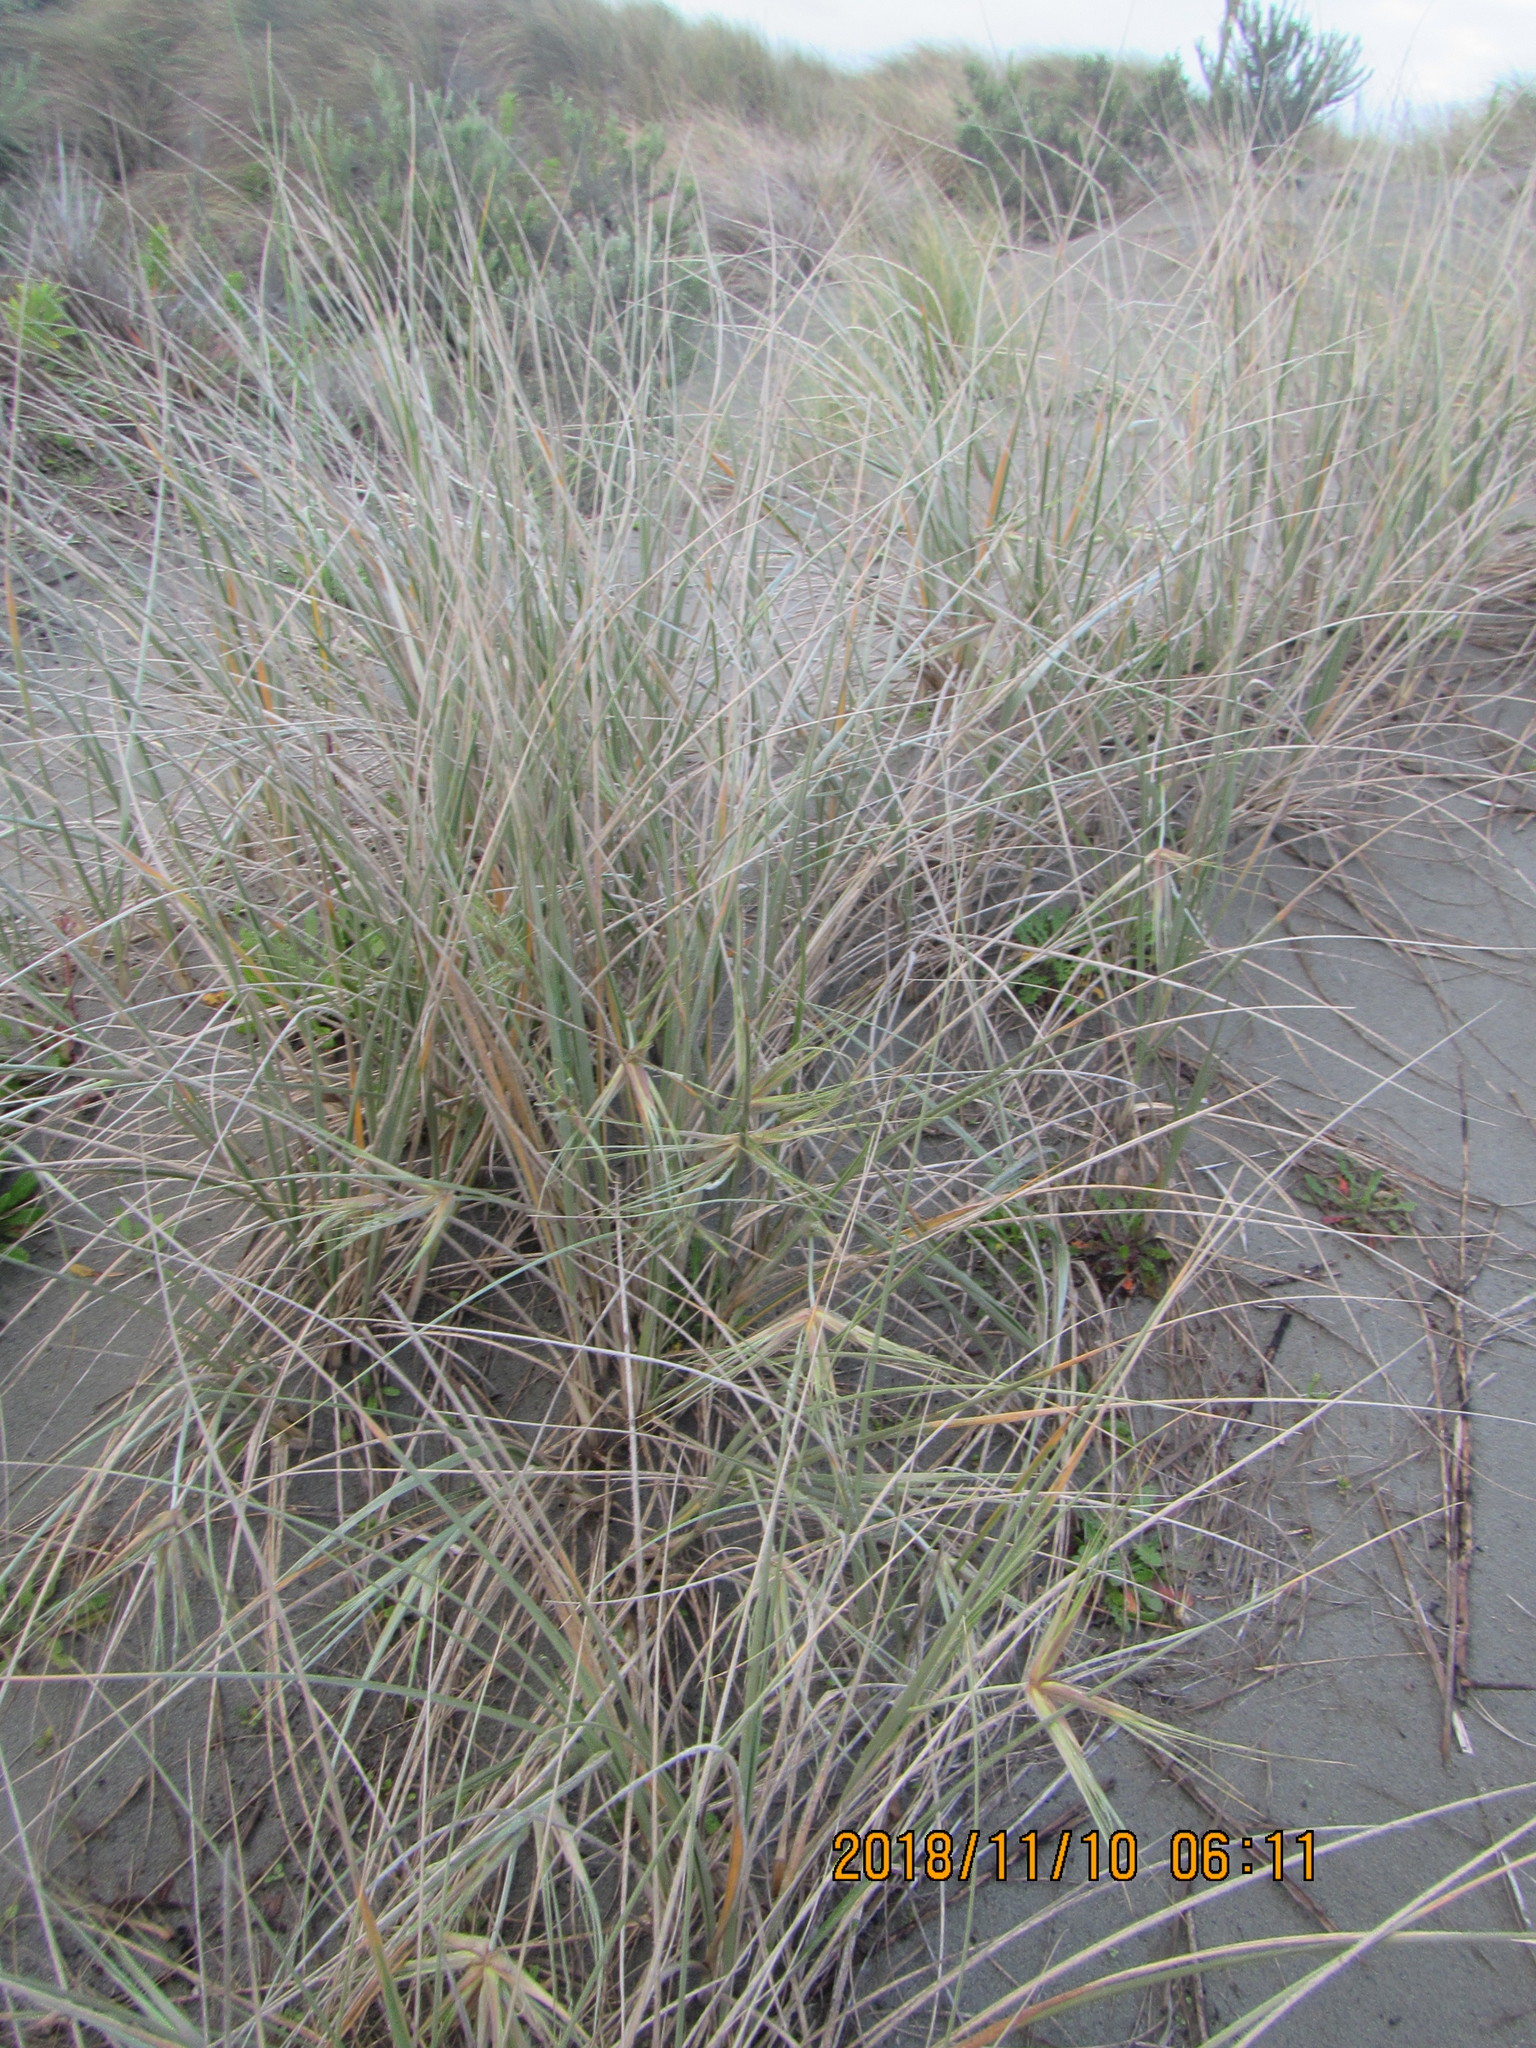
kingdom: Plantae
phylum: Tracheophyta
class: Liliopsida
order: Poales
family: Poaceae
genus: Spinifex
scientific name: Spinifex sericeus
